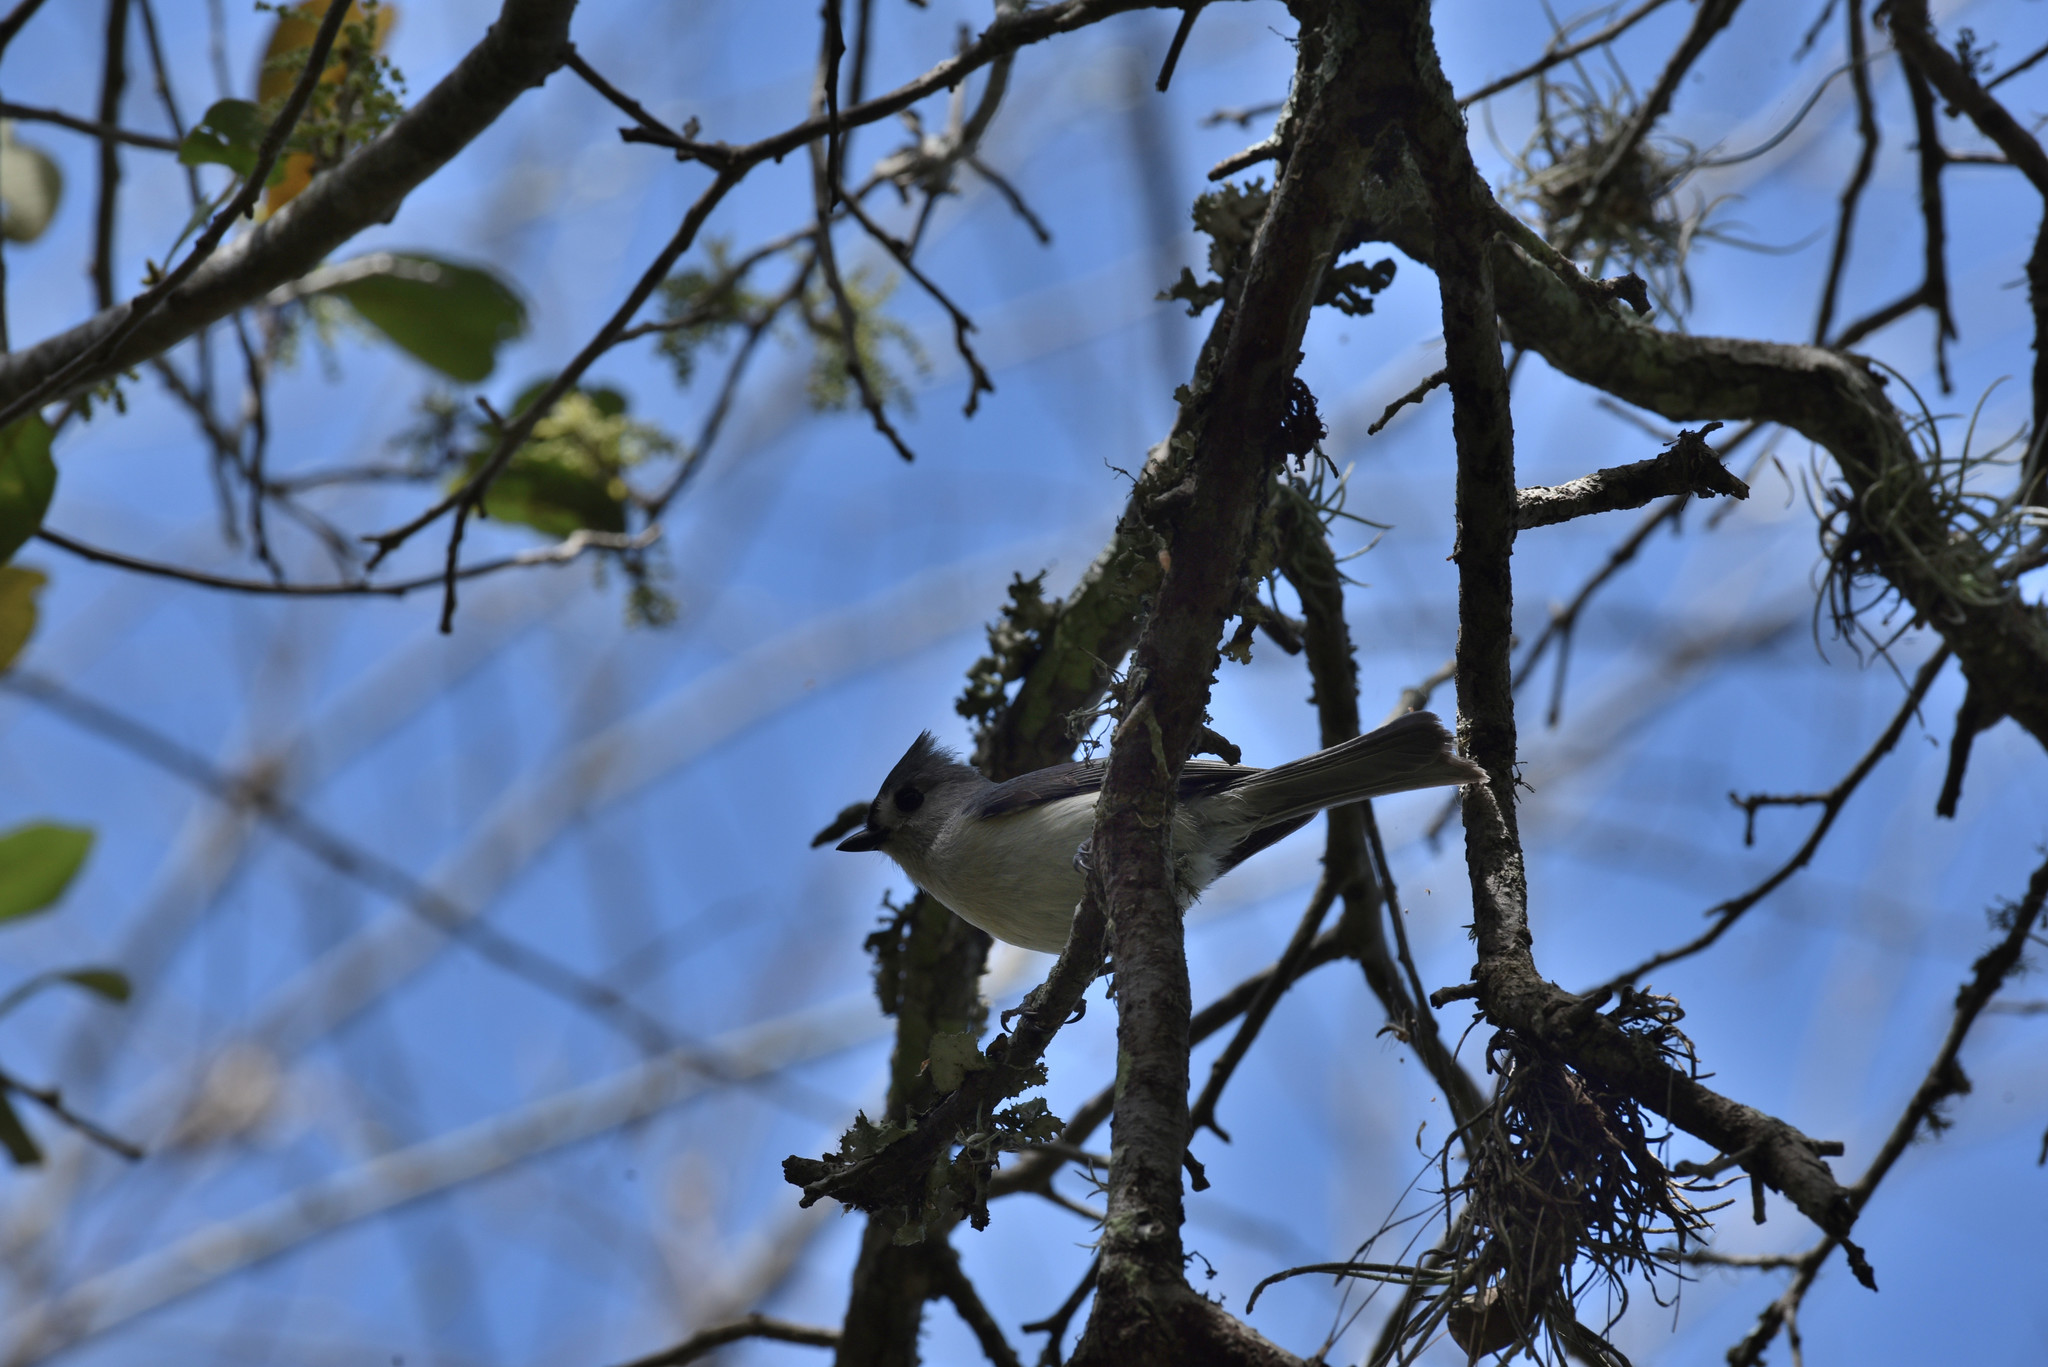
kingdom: Animalia
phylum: Chordata
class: Aves
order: Passeriformes
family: Paridae
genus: Baeolophus
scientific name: Baeolophus bicolor
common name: Tufted titmouse
